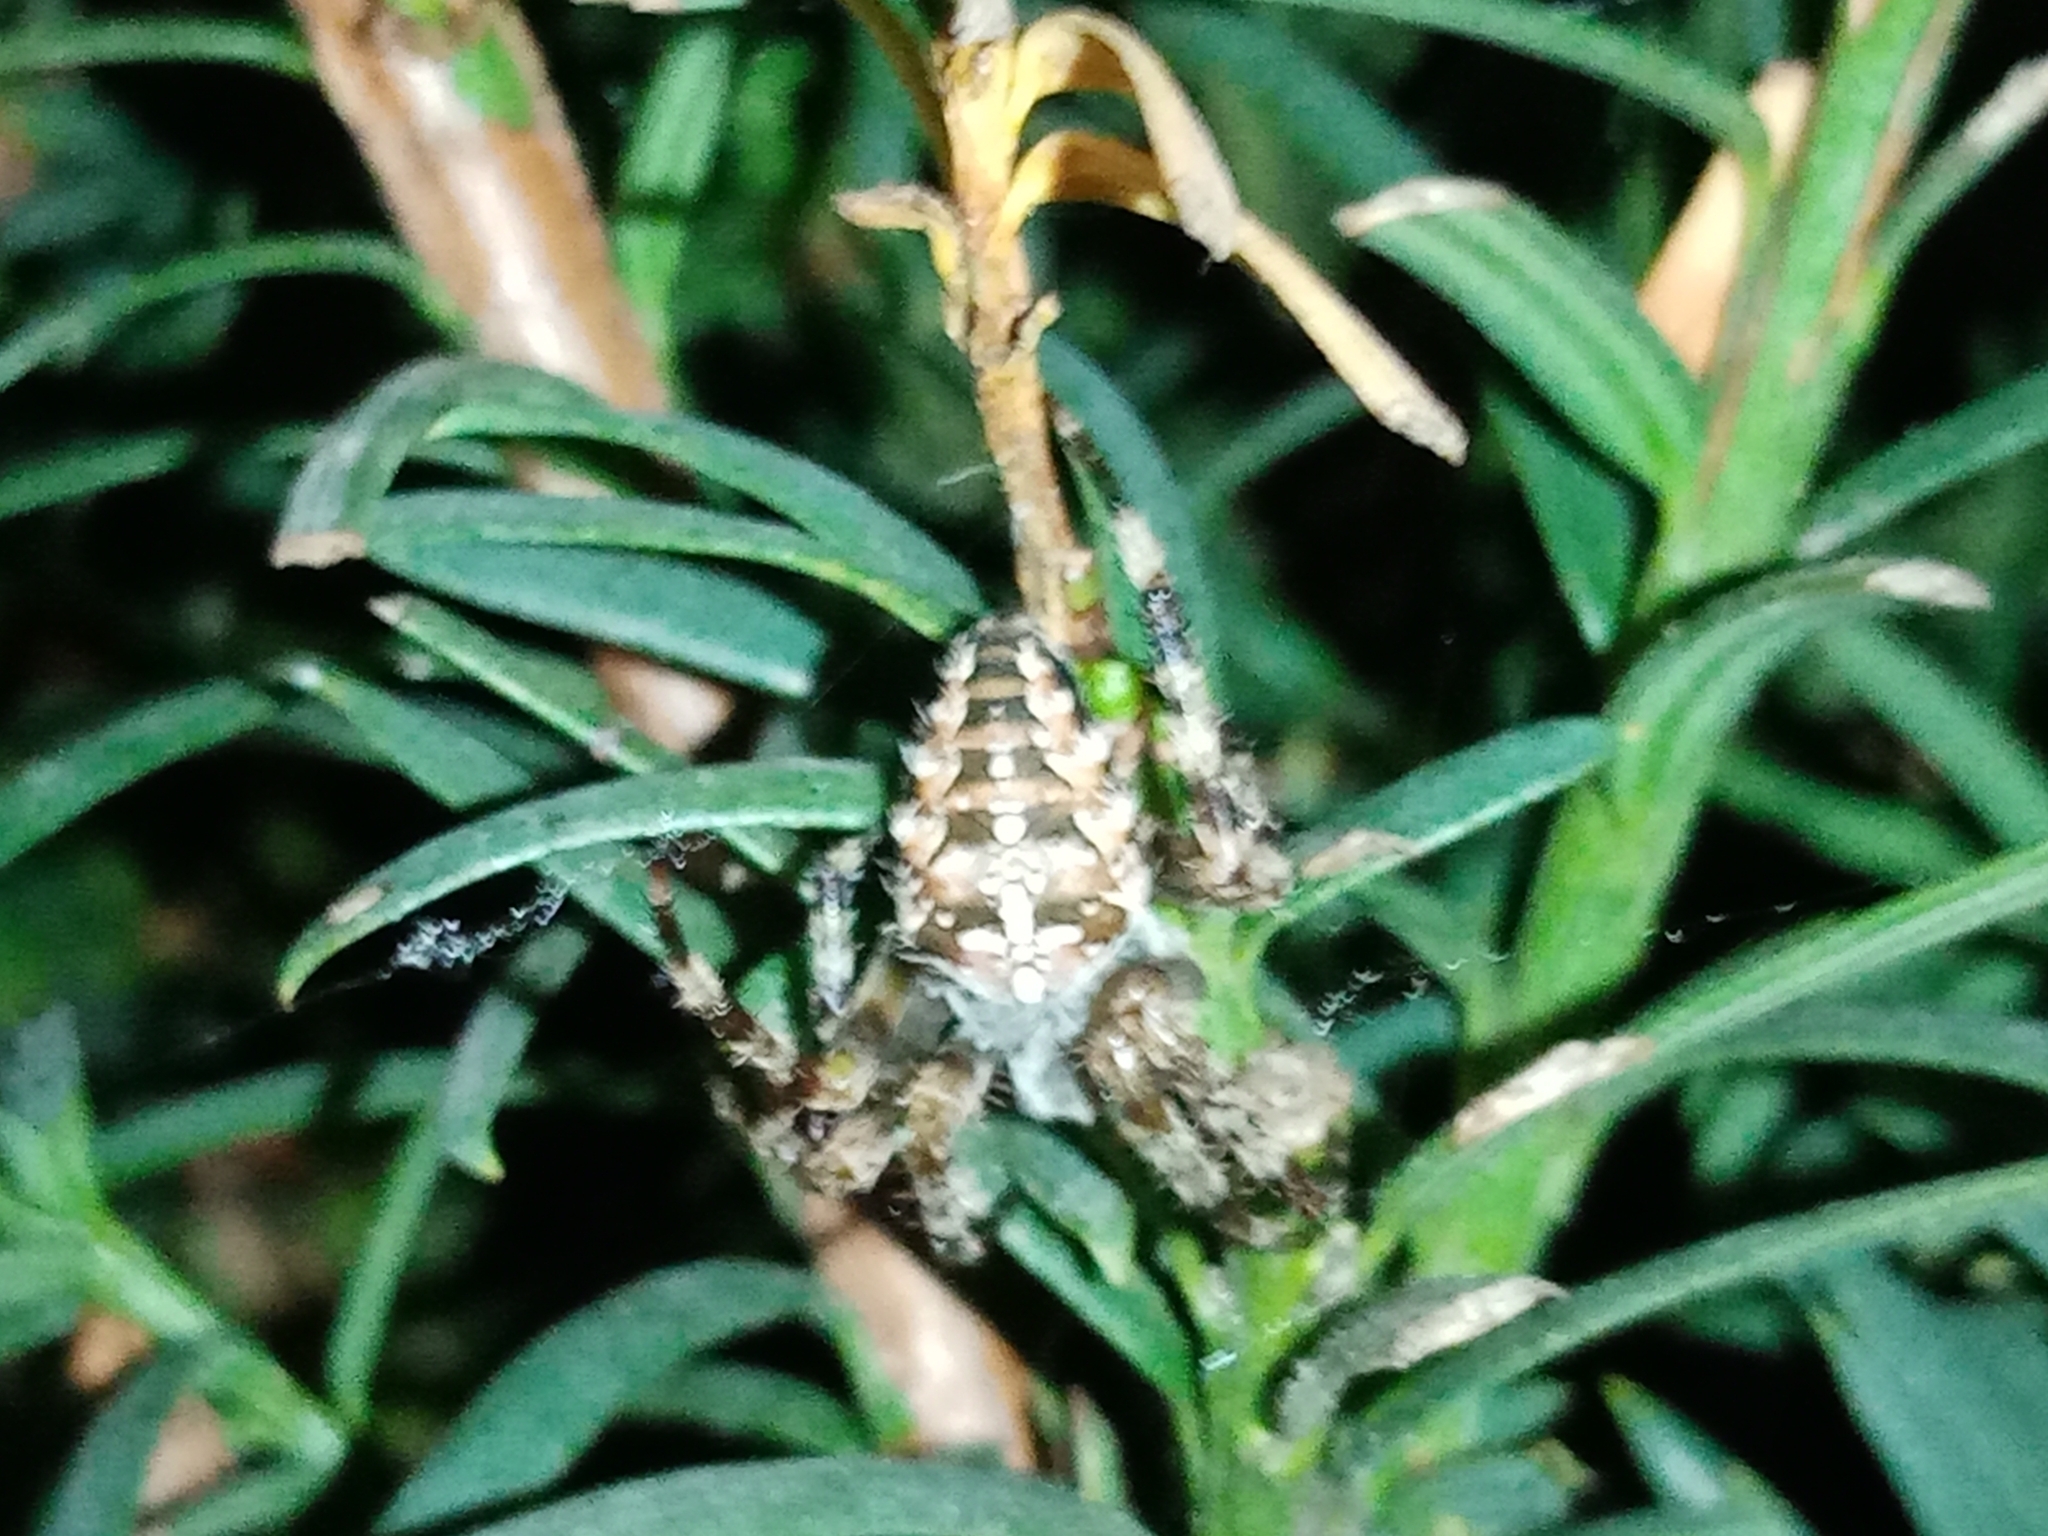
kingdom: Animalia
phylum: Arthropoda
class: Arachnida
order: Araneae
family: Araneidae
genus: Araneus
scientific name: Araneus diadematus
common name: Cross orbweaver
